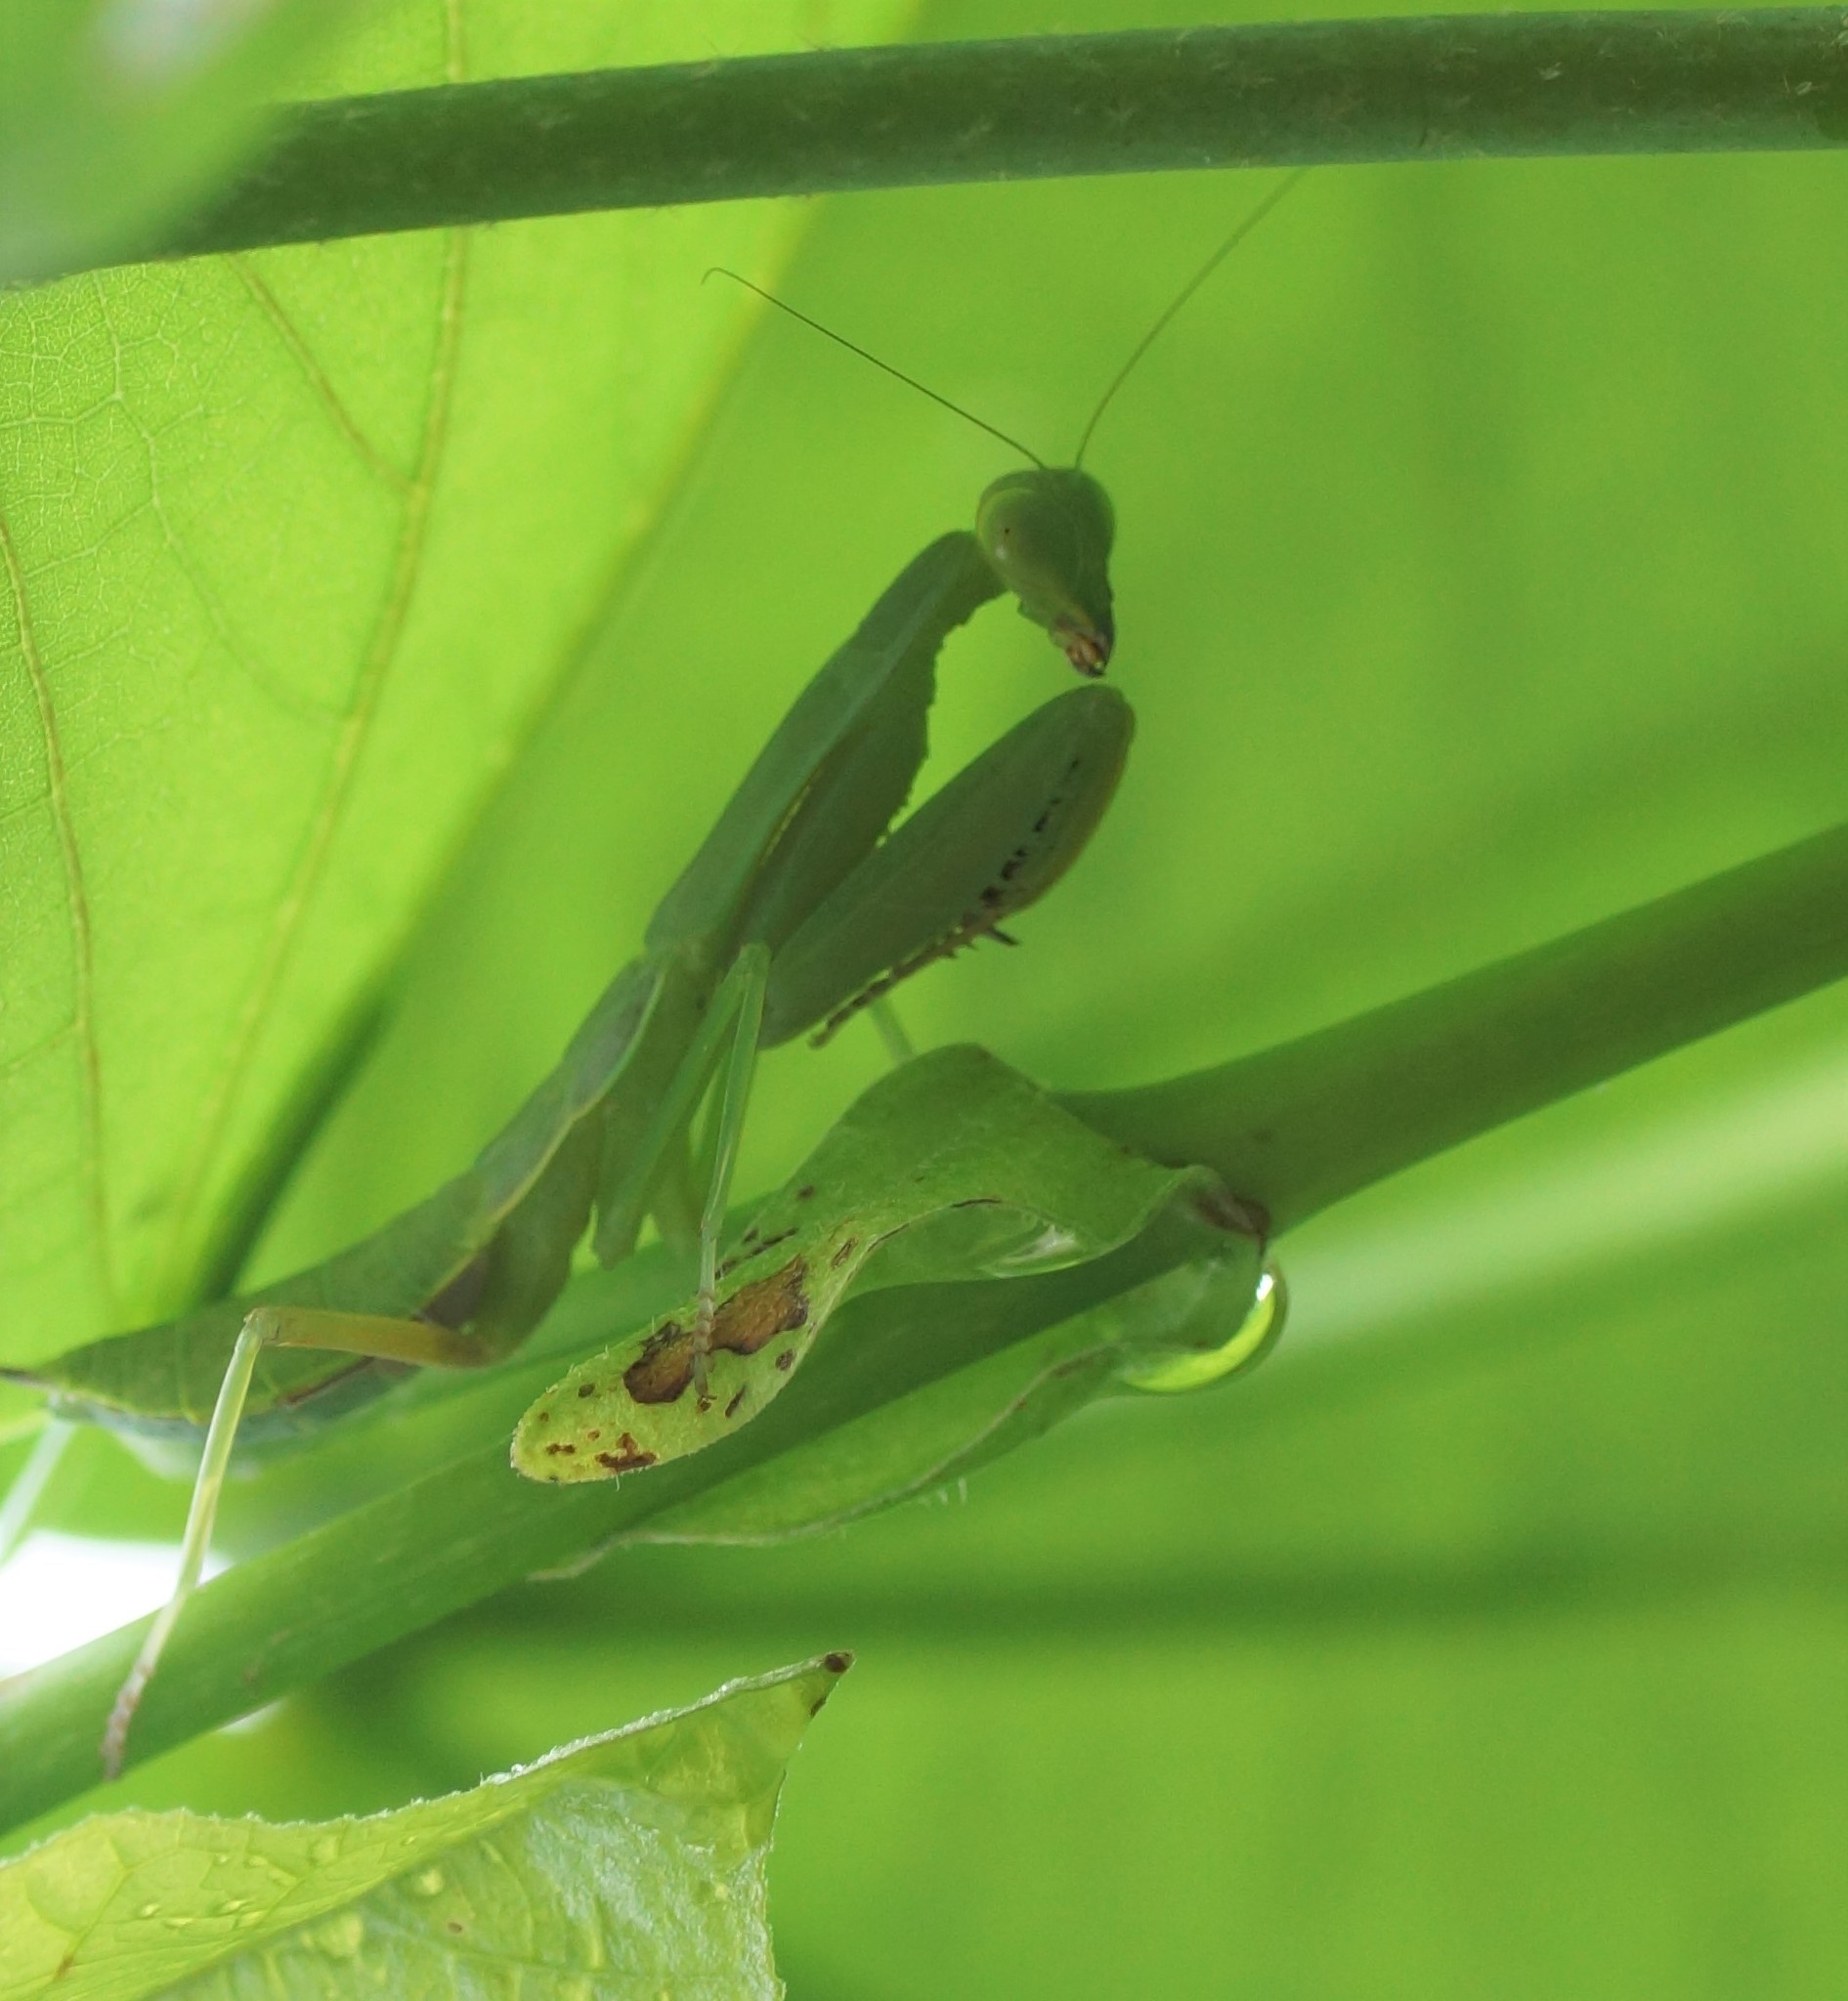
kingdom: Animalia
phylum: Arthropoda
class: Insecta
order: Mantodea
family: Mantidae
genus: Hierodula
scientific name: Hierodula werneri
